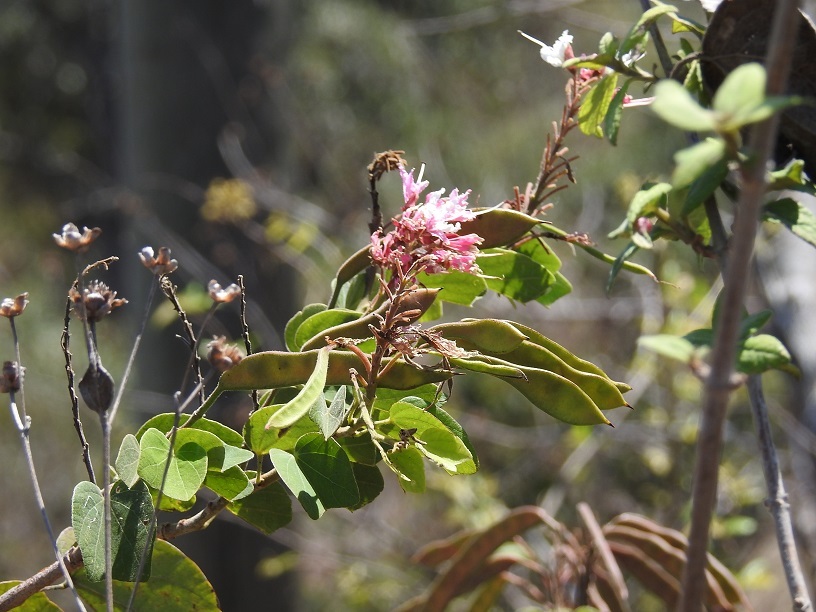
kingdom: Plantae
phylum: Tracheophyta
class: Magnoliopsida
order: Fabales
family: Fabaceae
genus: Bauhinia
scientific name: Bauhinia divaricata
